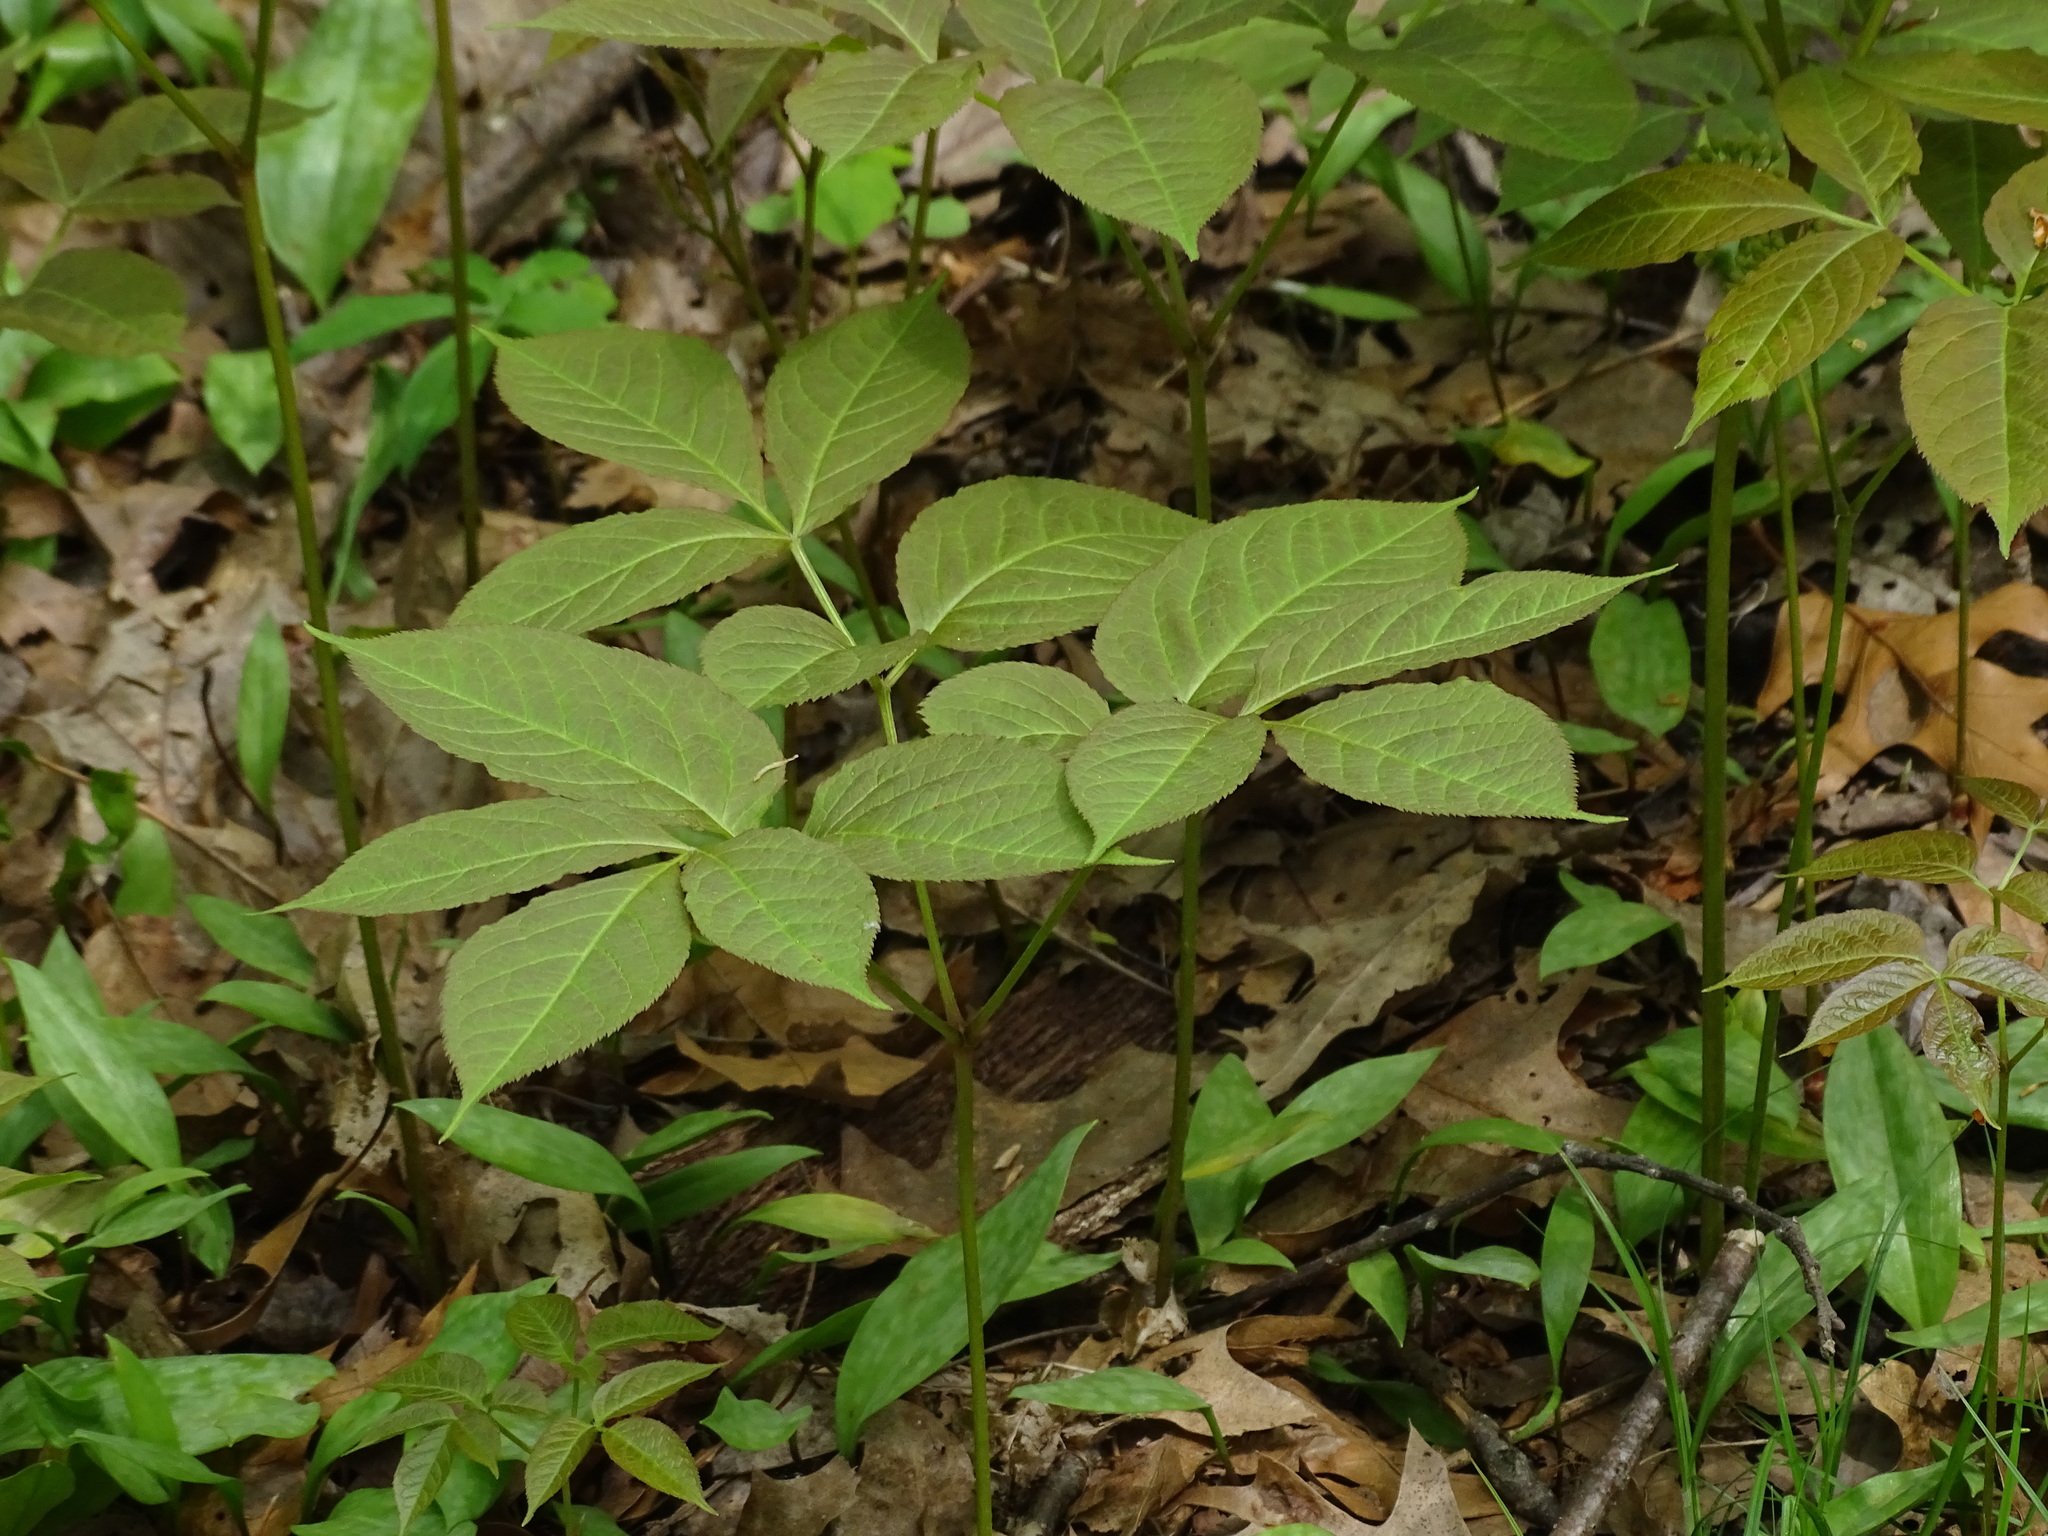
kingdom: Plantae
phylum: Tracheophyta
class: Magnoliopsida
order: Apiales
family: Araliaceae
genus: Aralia
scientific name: Aralia nudicaulis
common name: Wild sarsaparilla
